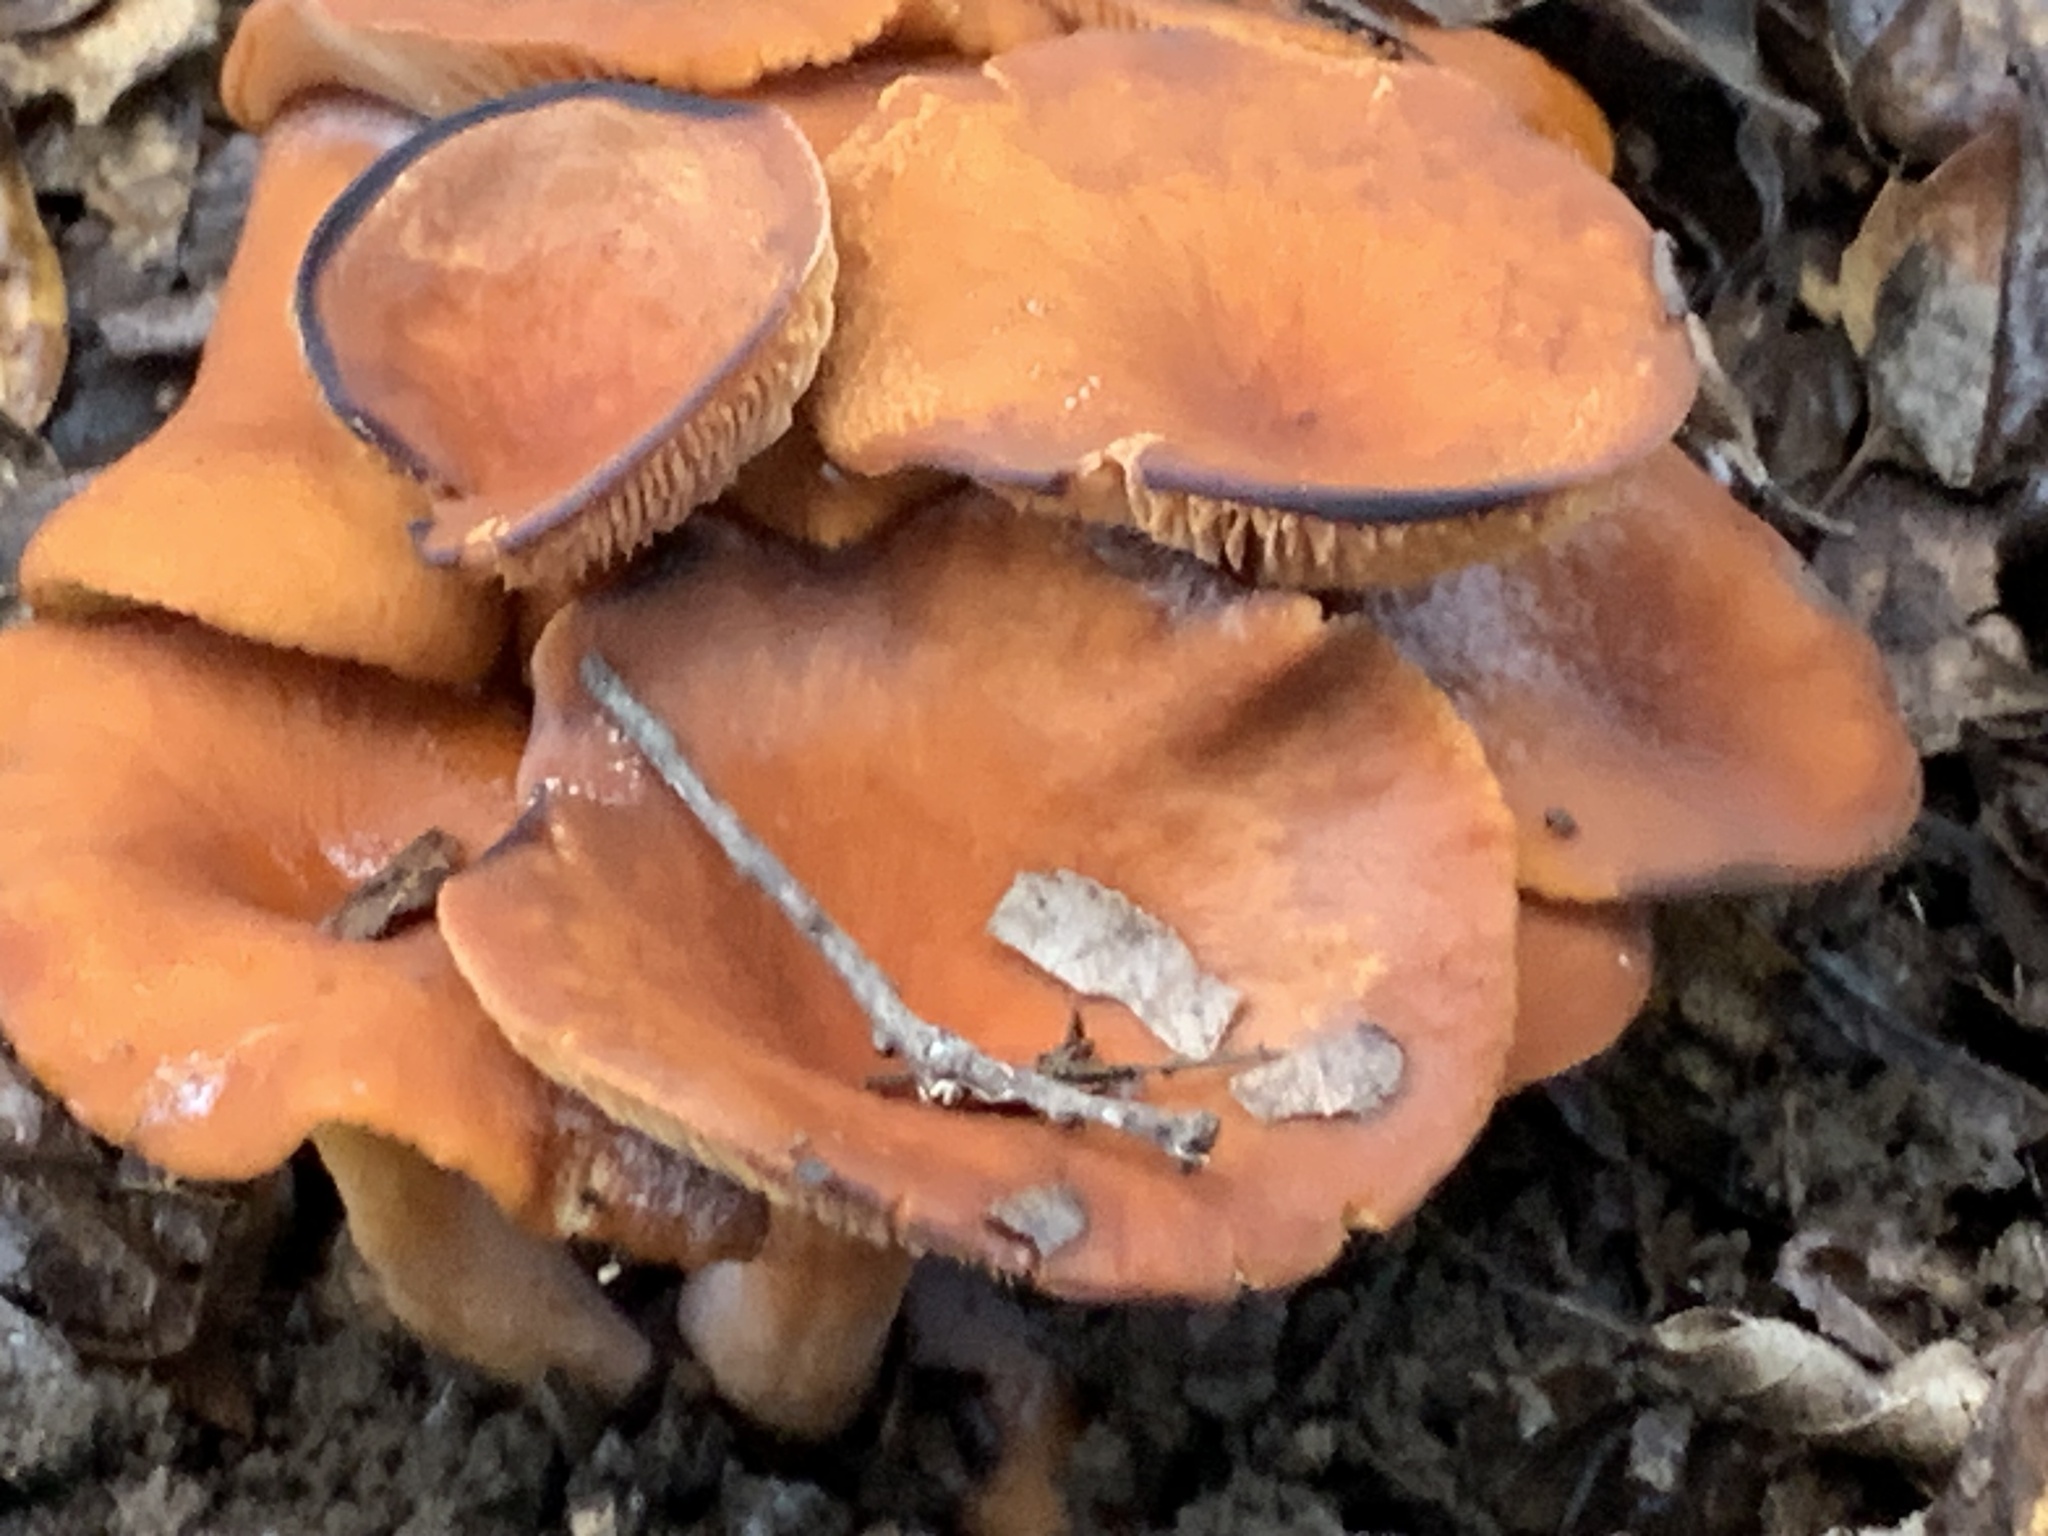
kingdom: Fungi
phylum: Basidiomycota
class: Agaricomycetes
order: Russulales
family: Russulaceae
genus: Lactarius
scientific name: Lactarius rubidus
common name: Candy cap
